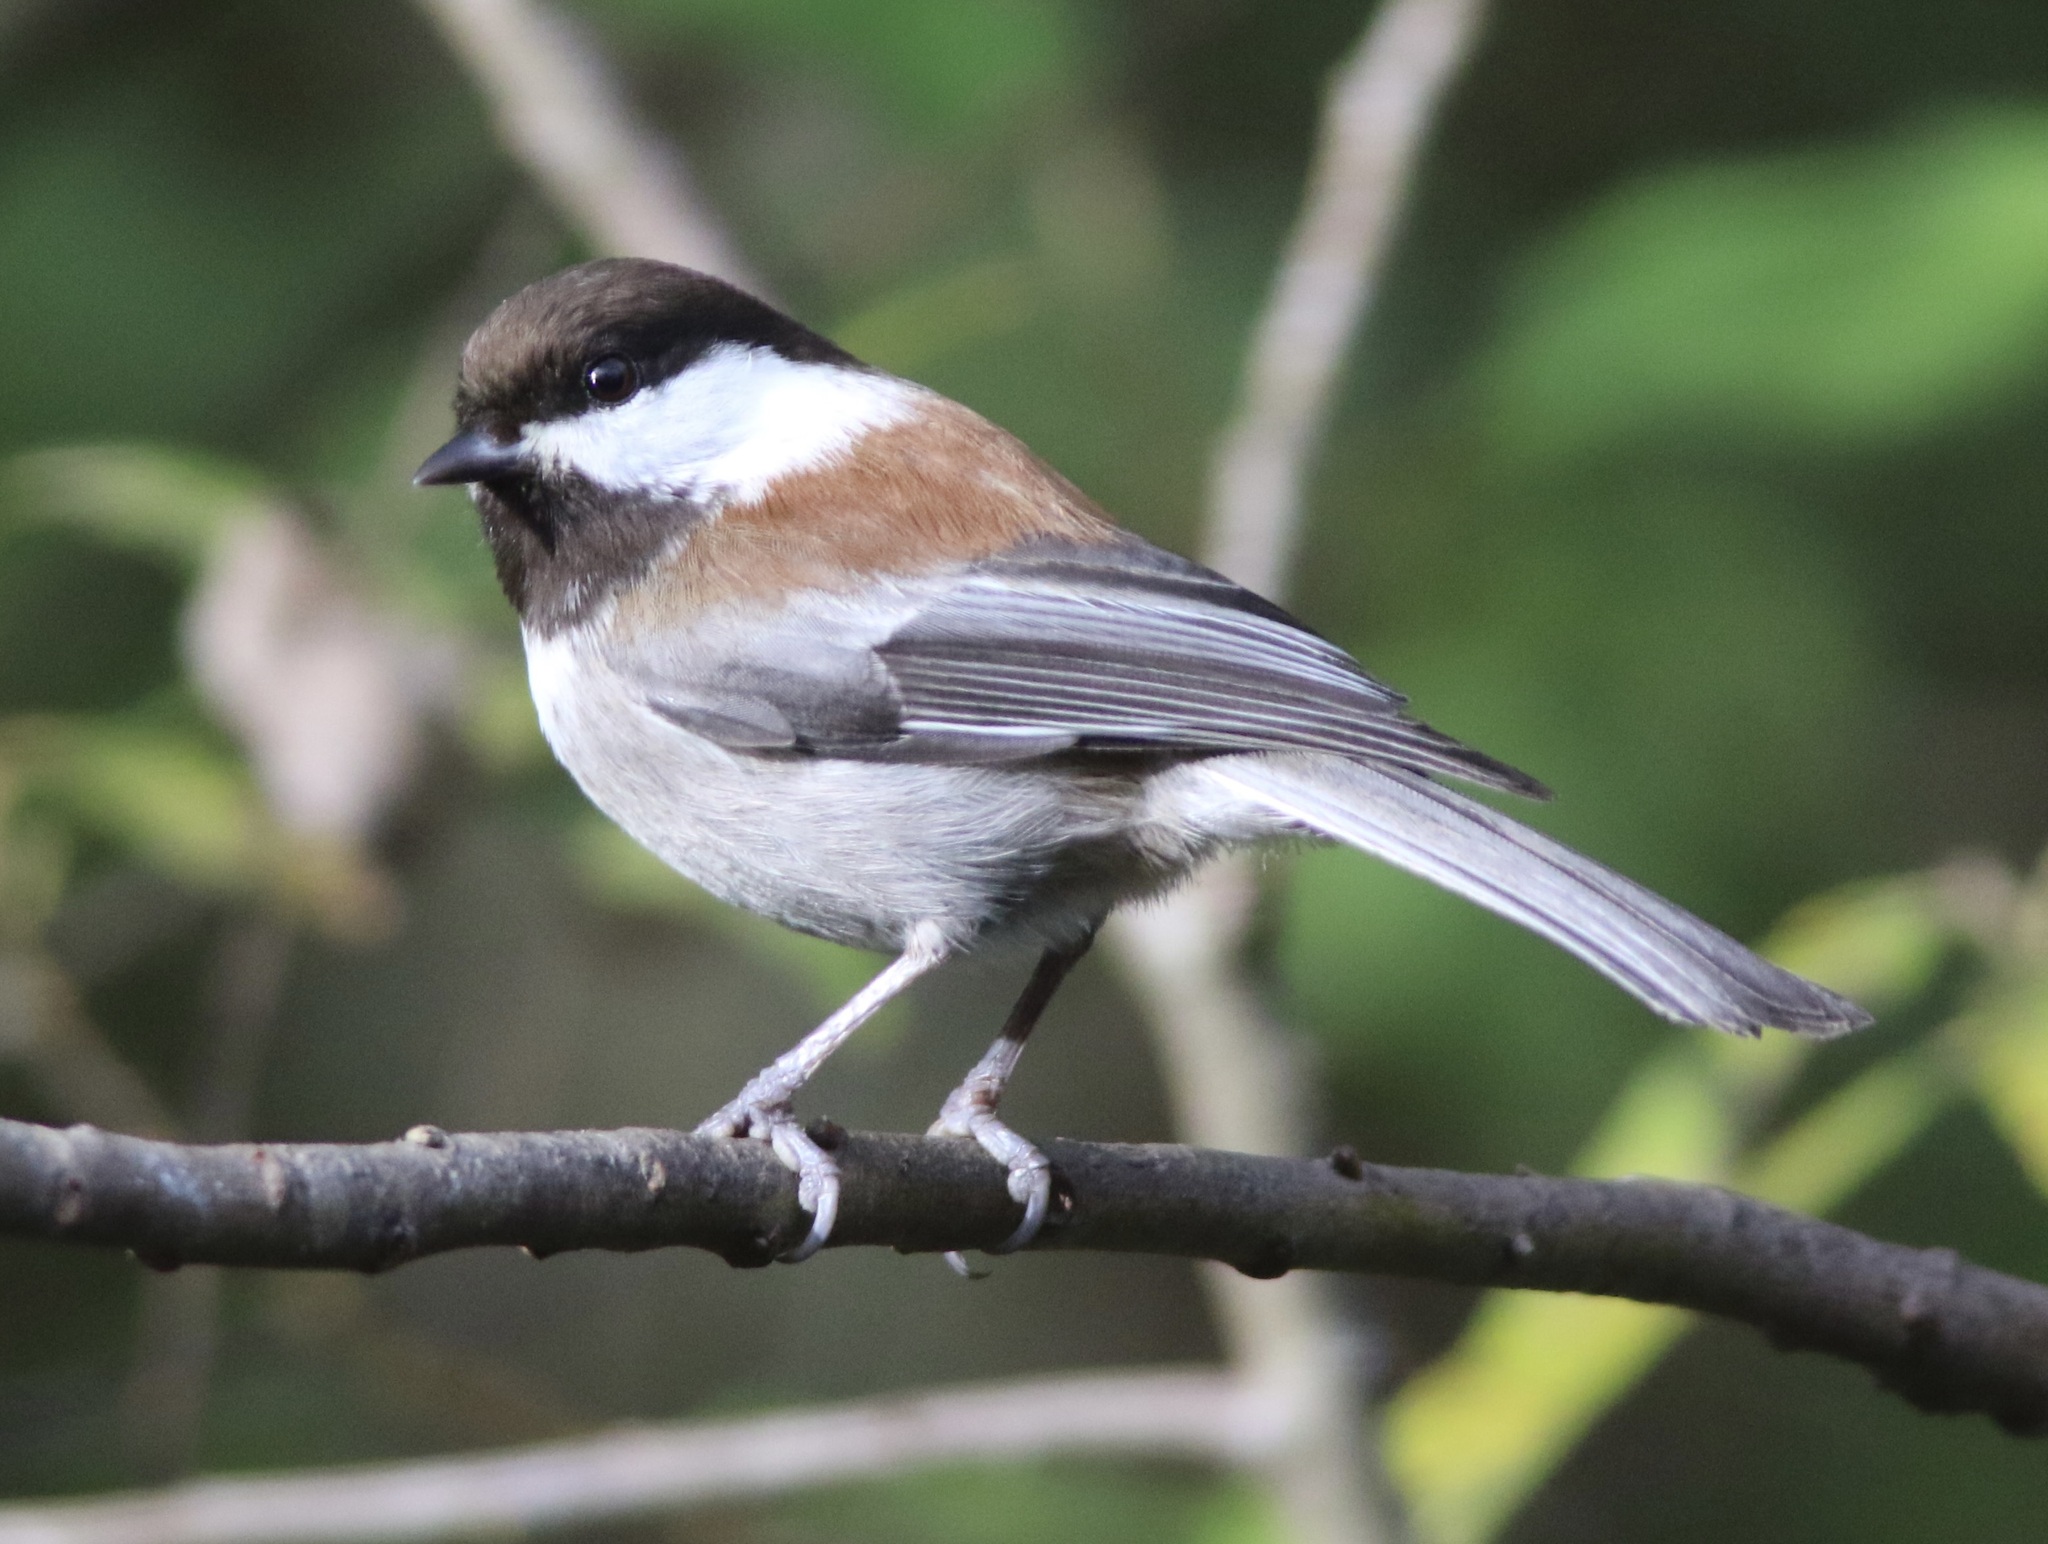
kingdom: Animalia
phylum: Chordata
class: Aves
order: Passeriformes
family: Paridae
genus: Poecile
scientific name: Poecile rufescens
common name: Chestnut-backed chickadee
